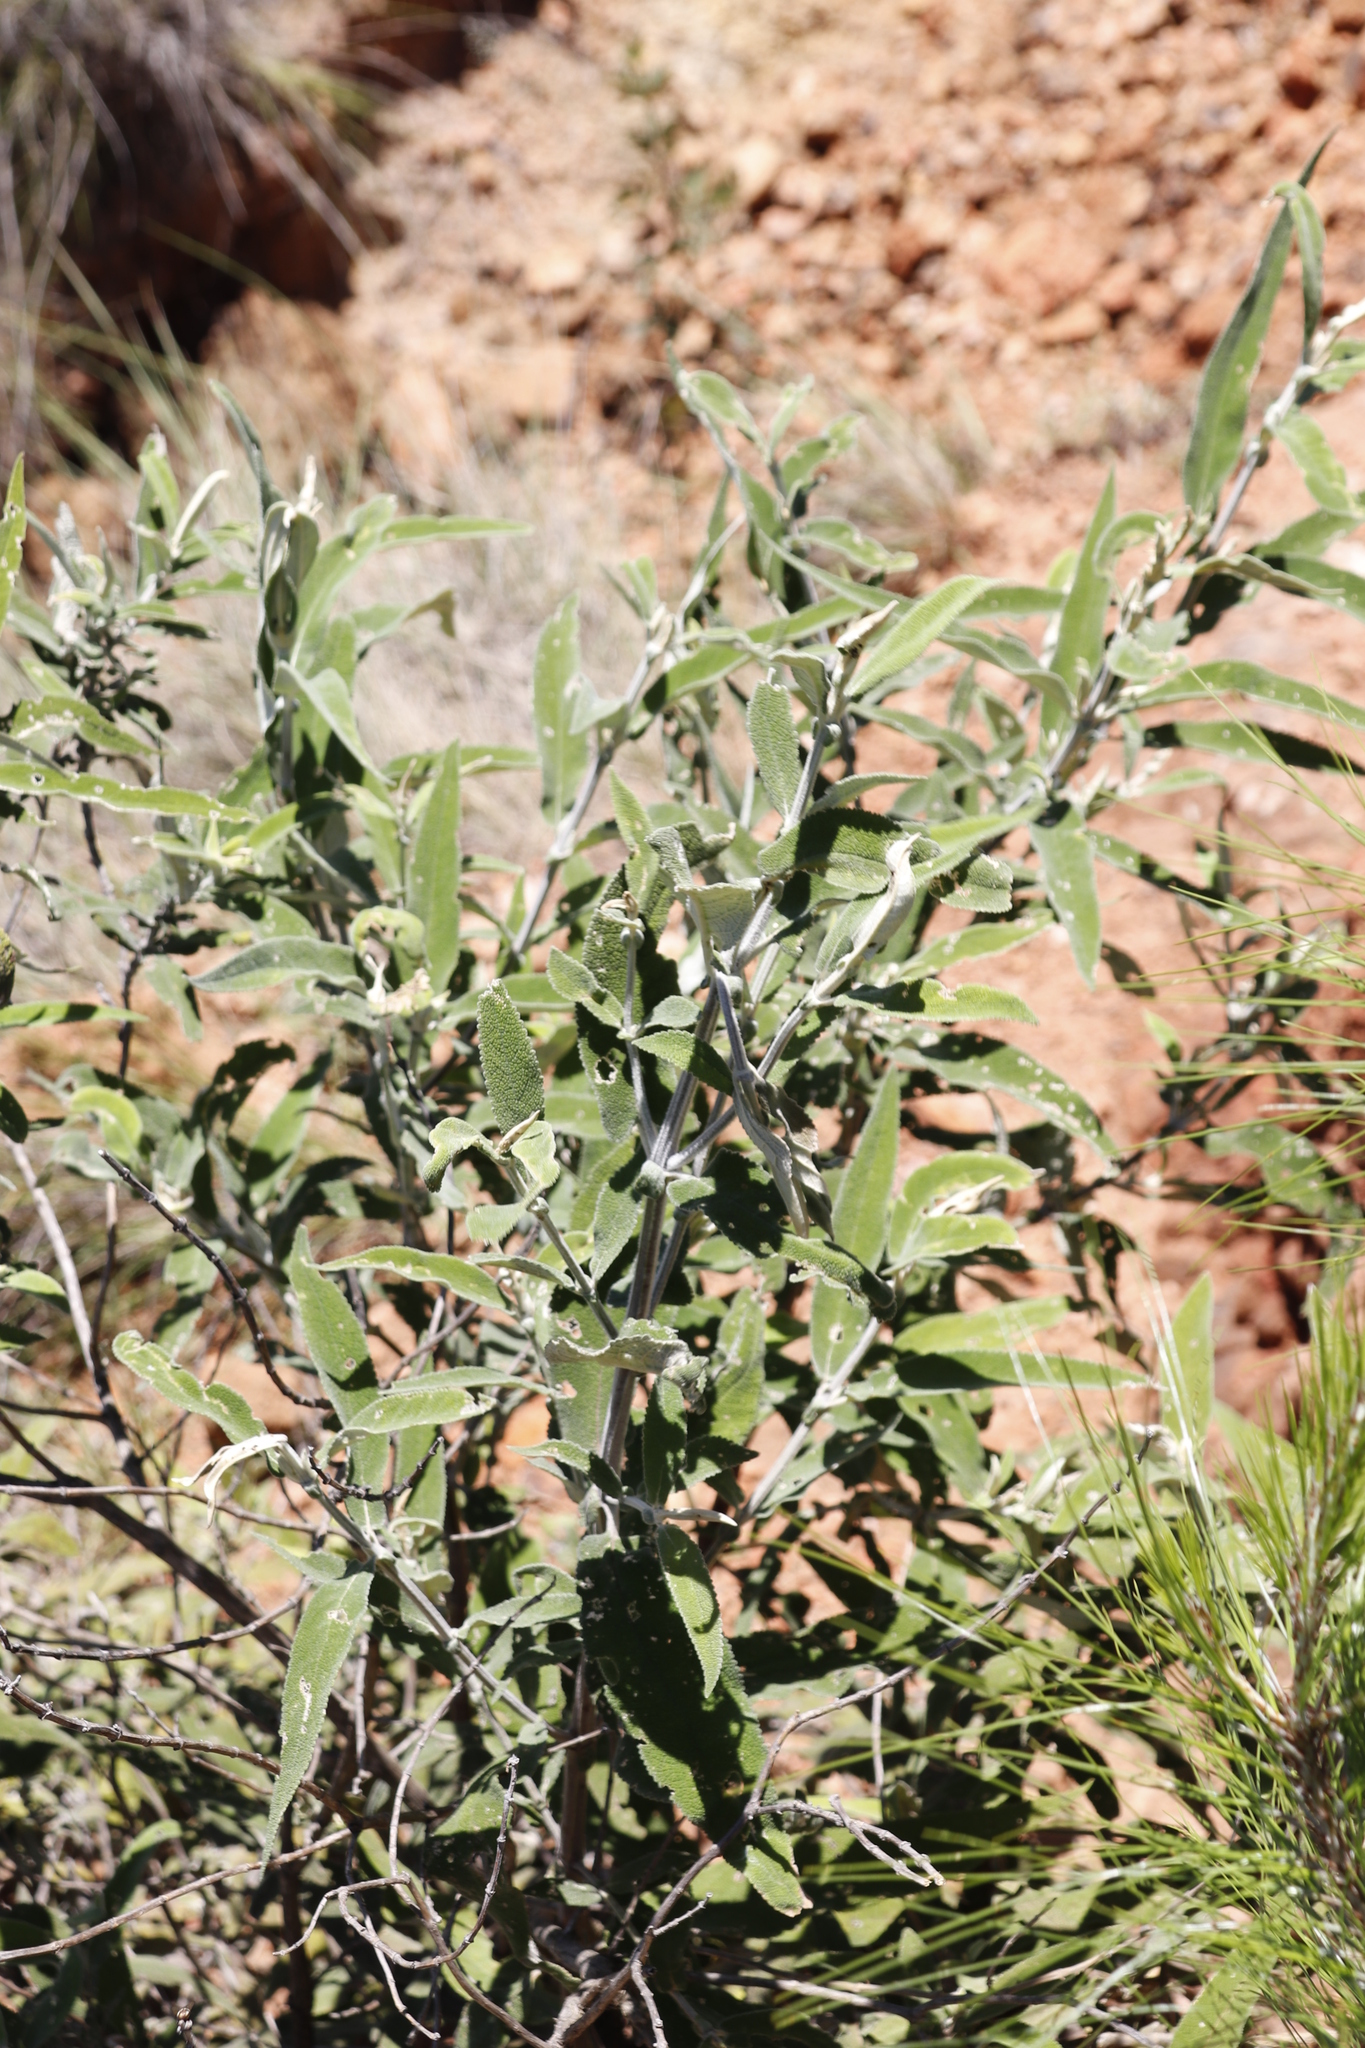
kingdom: Plantae
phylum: Tracheophyta
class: Magnoliopsida
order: Lamiales
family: Scrophulariaceae
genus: Buddleja
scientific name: Buddleja salviifolia
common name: Sagewood
